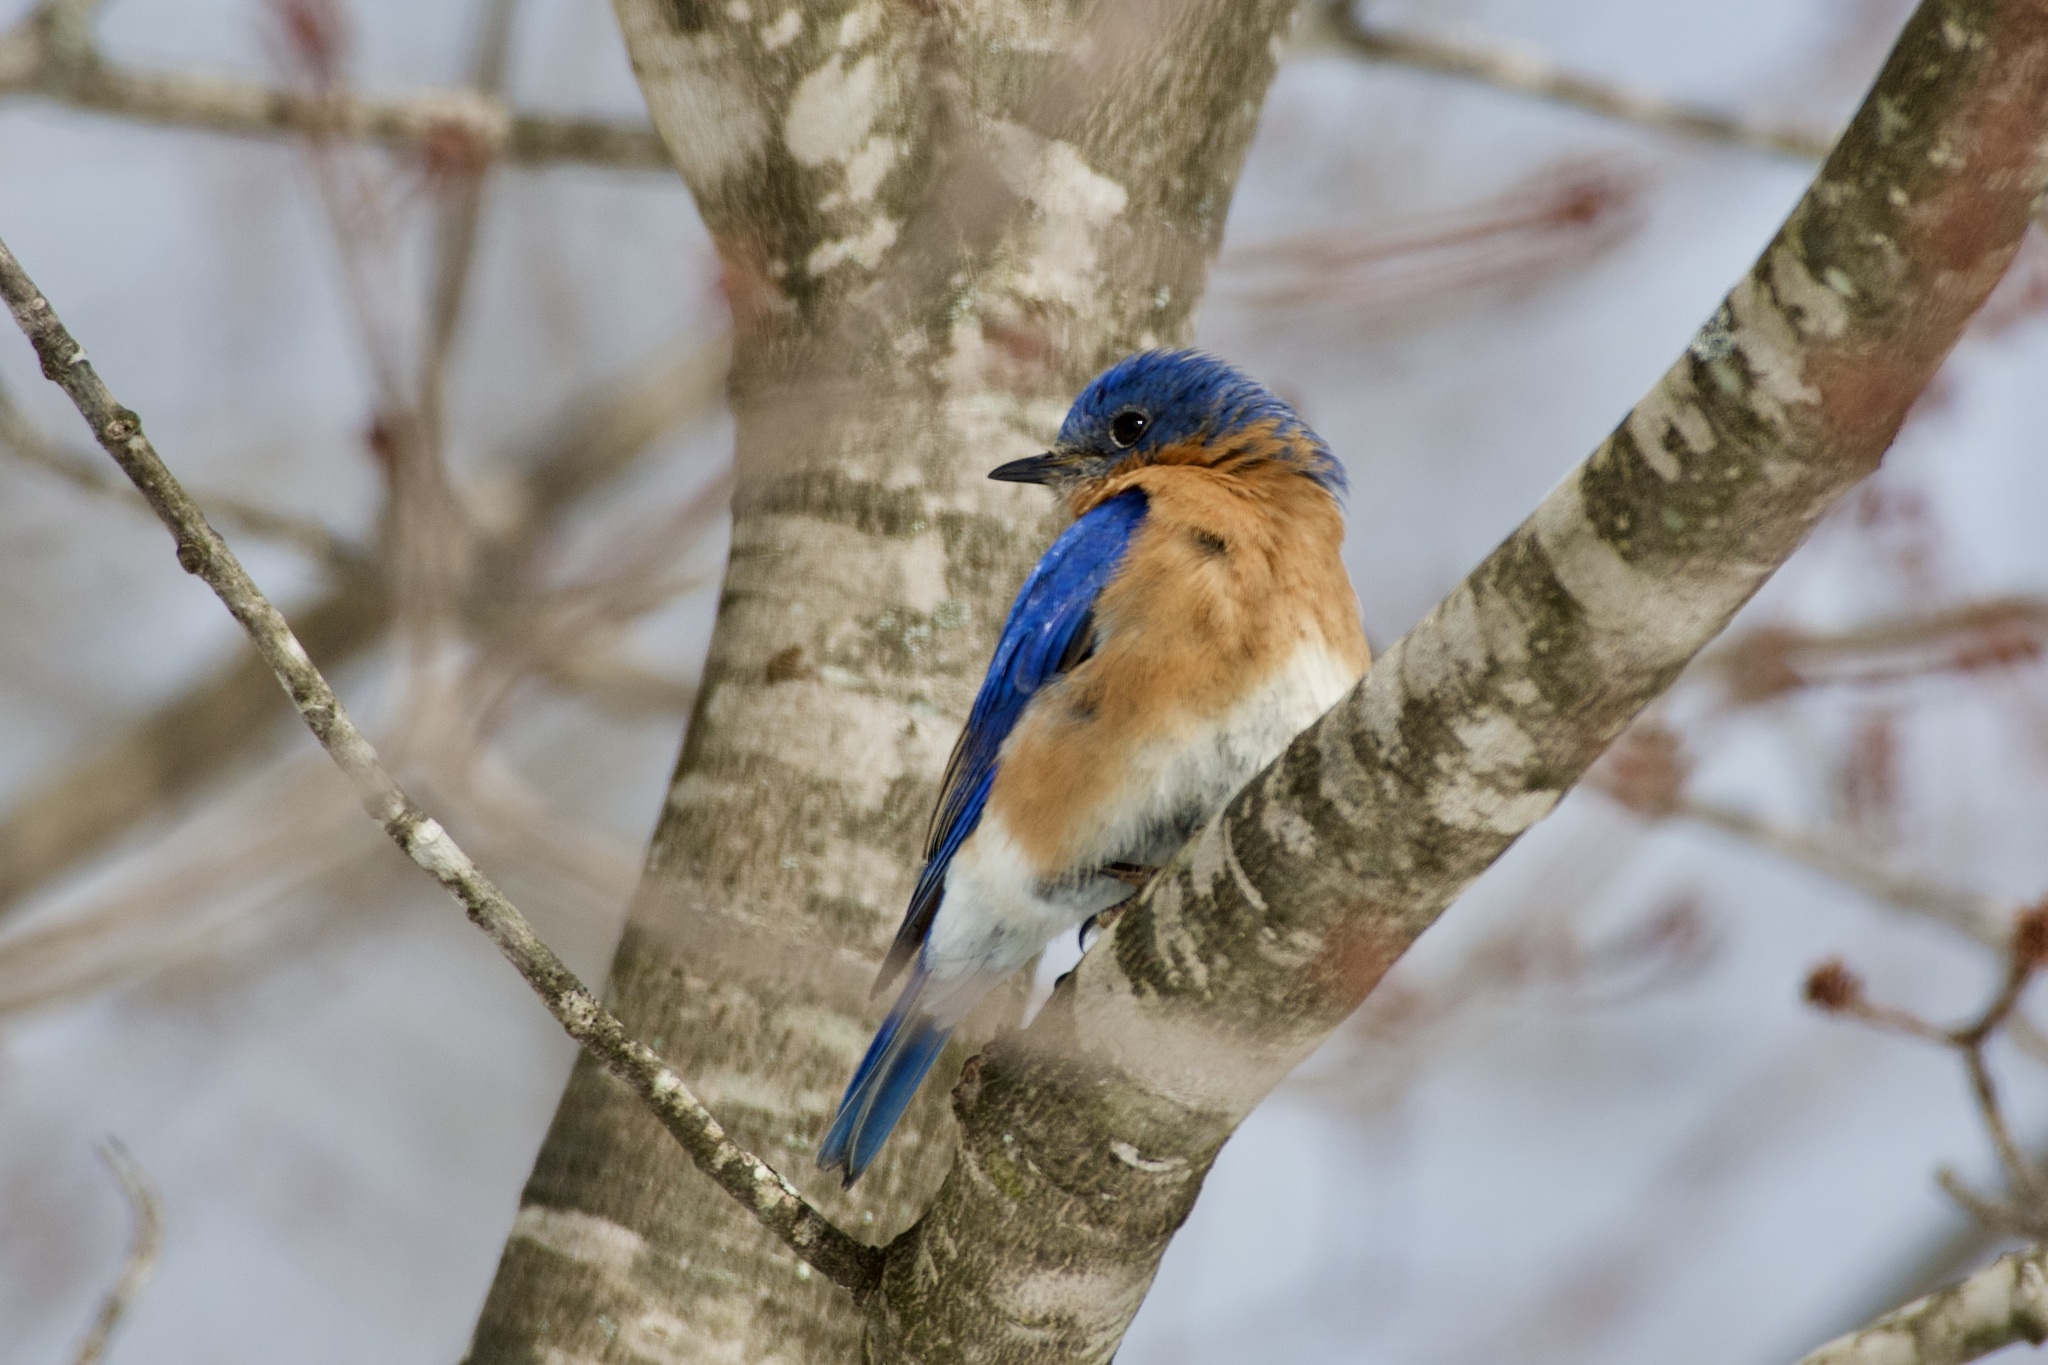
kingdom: Animalia
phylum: Chordata
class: Aves
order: Passeriformes
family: Turdidae
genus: Sialia
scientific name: Sialia sialis
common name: Eastern bluebird
